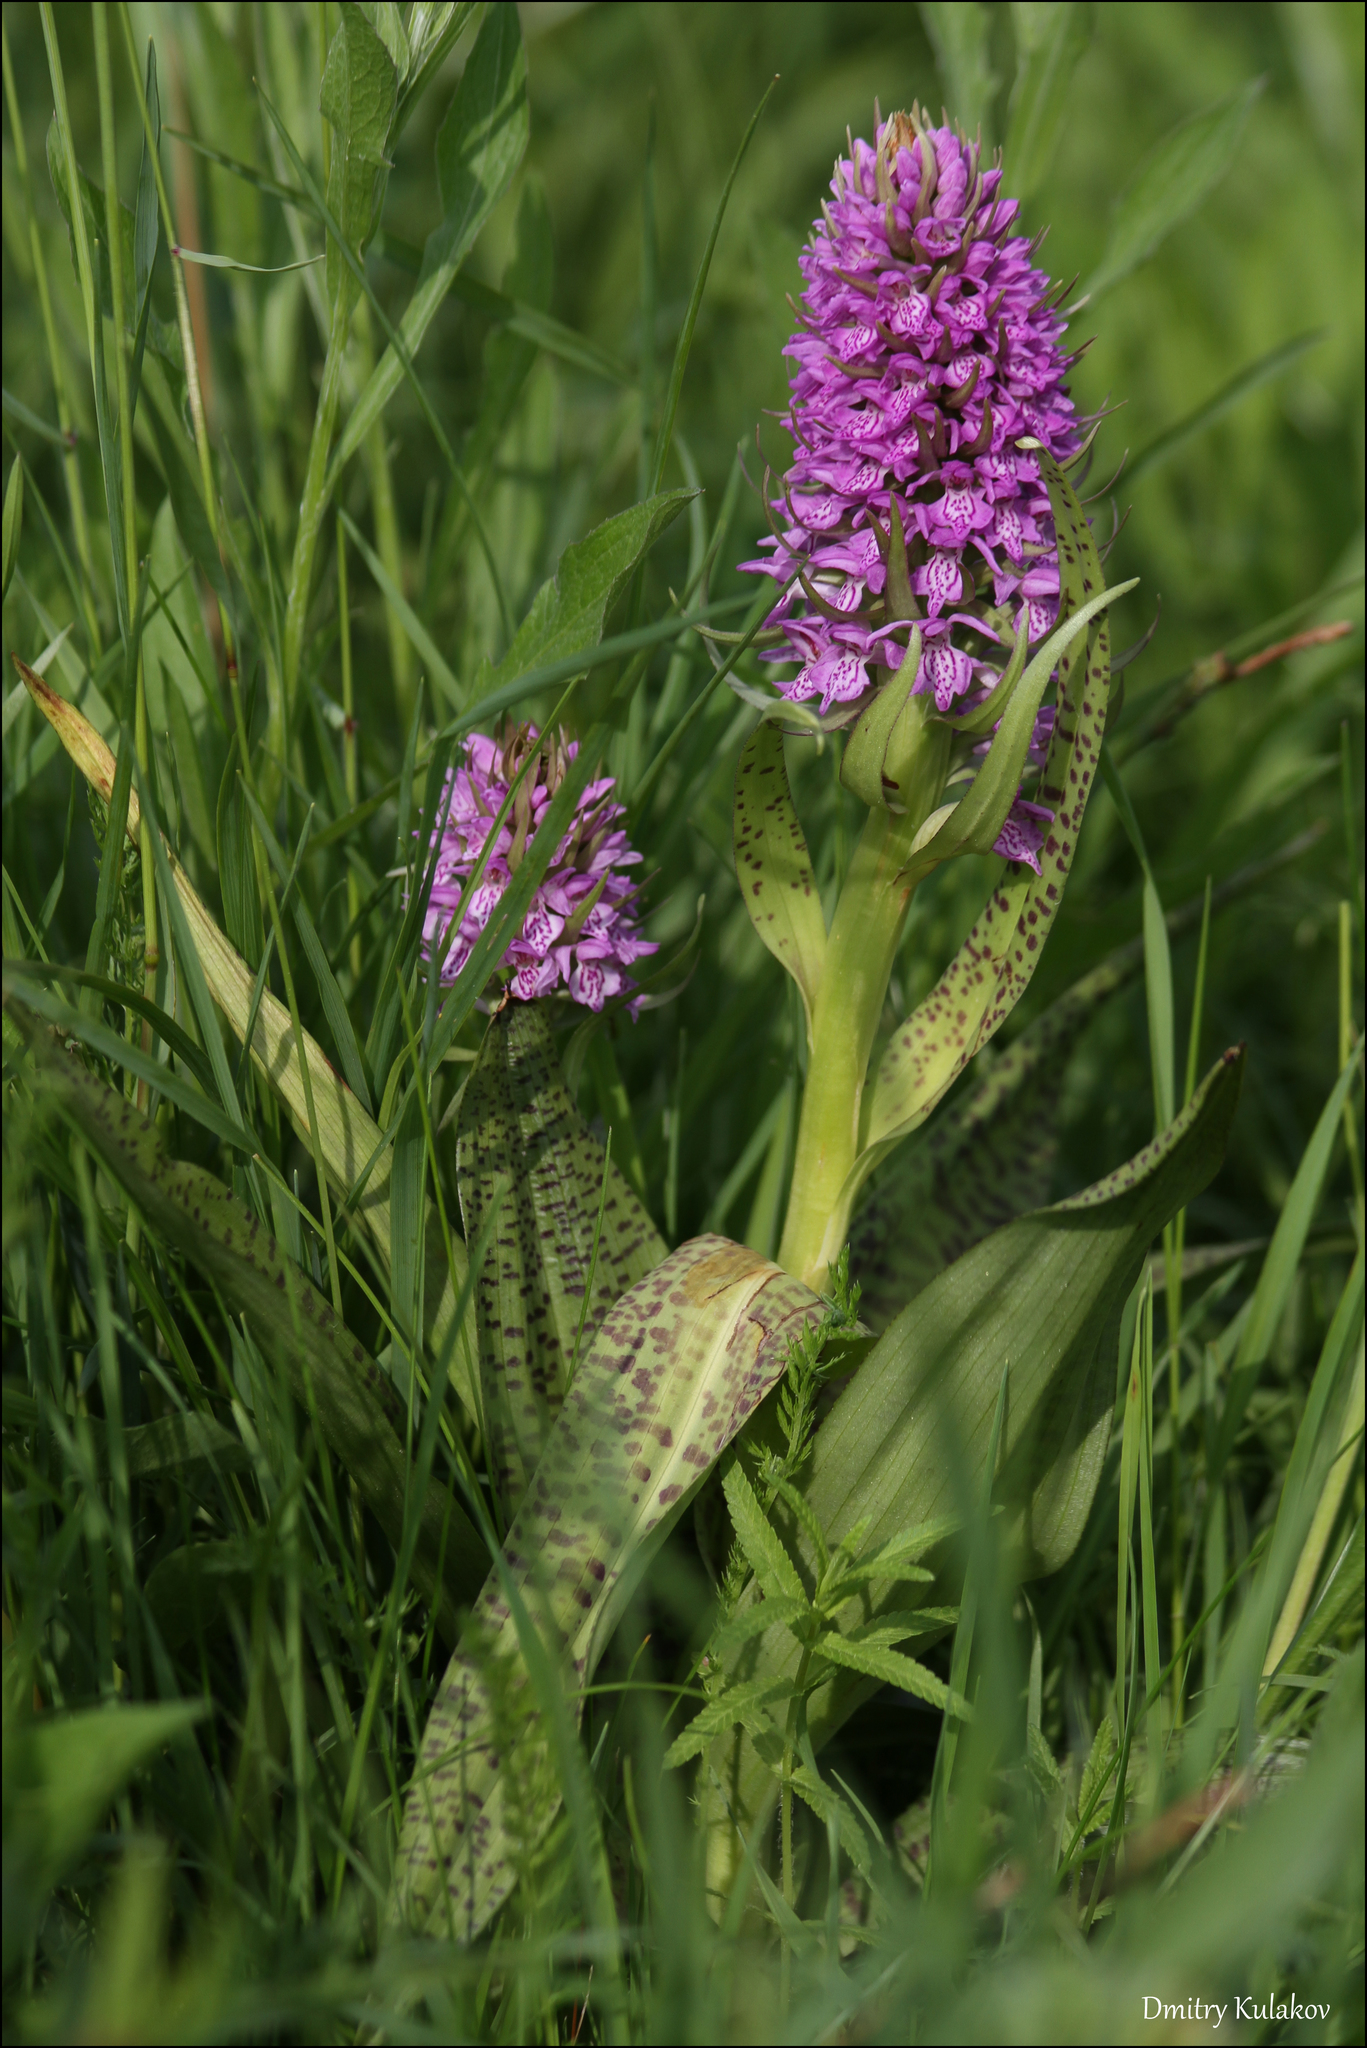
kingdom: Plantae
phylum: Tracheophyta
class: Liliopsida
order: Asparagales
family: Orchidaceae
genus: Dactylorhiza
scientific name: Dactylorhiza majalis
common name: Marsh orchid
